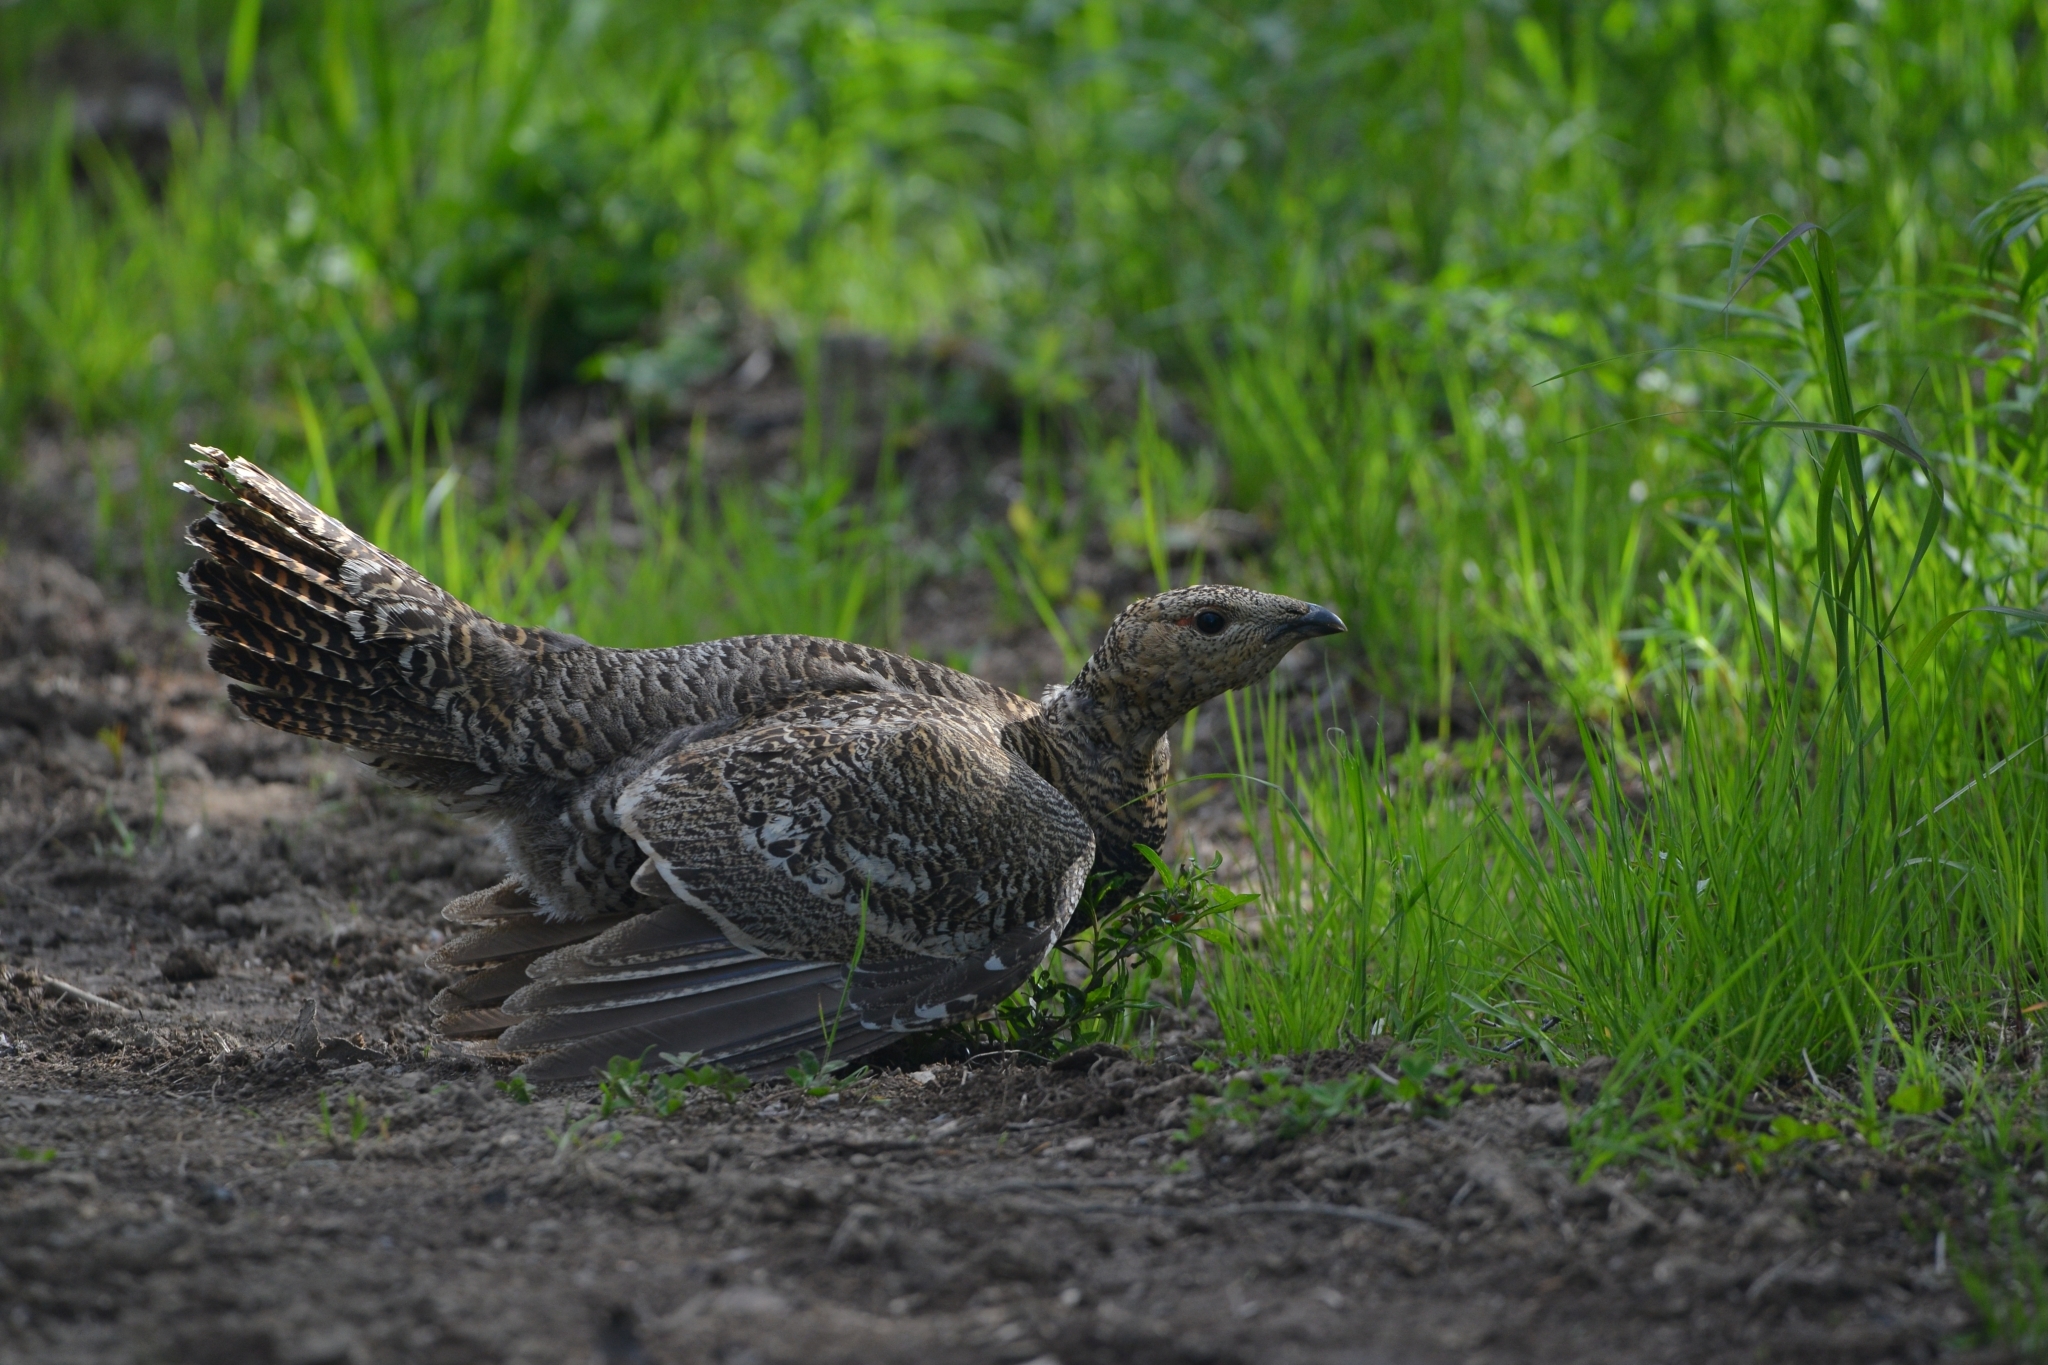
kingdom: Animalia
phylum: Chordata
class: Aves
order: Galliformes
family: Phasianidae
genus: Tetrao
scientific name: Tetrao urogalloides
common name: Black-billed capercaillie
